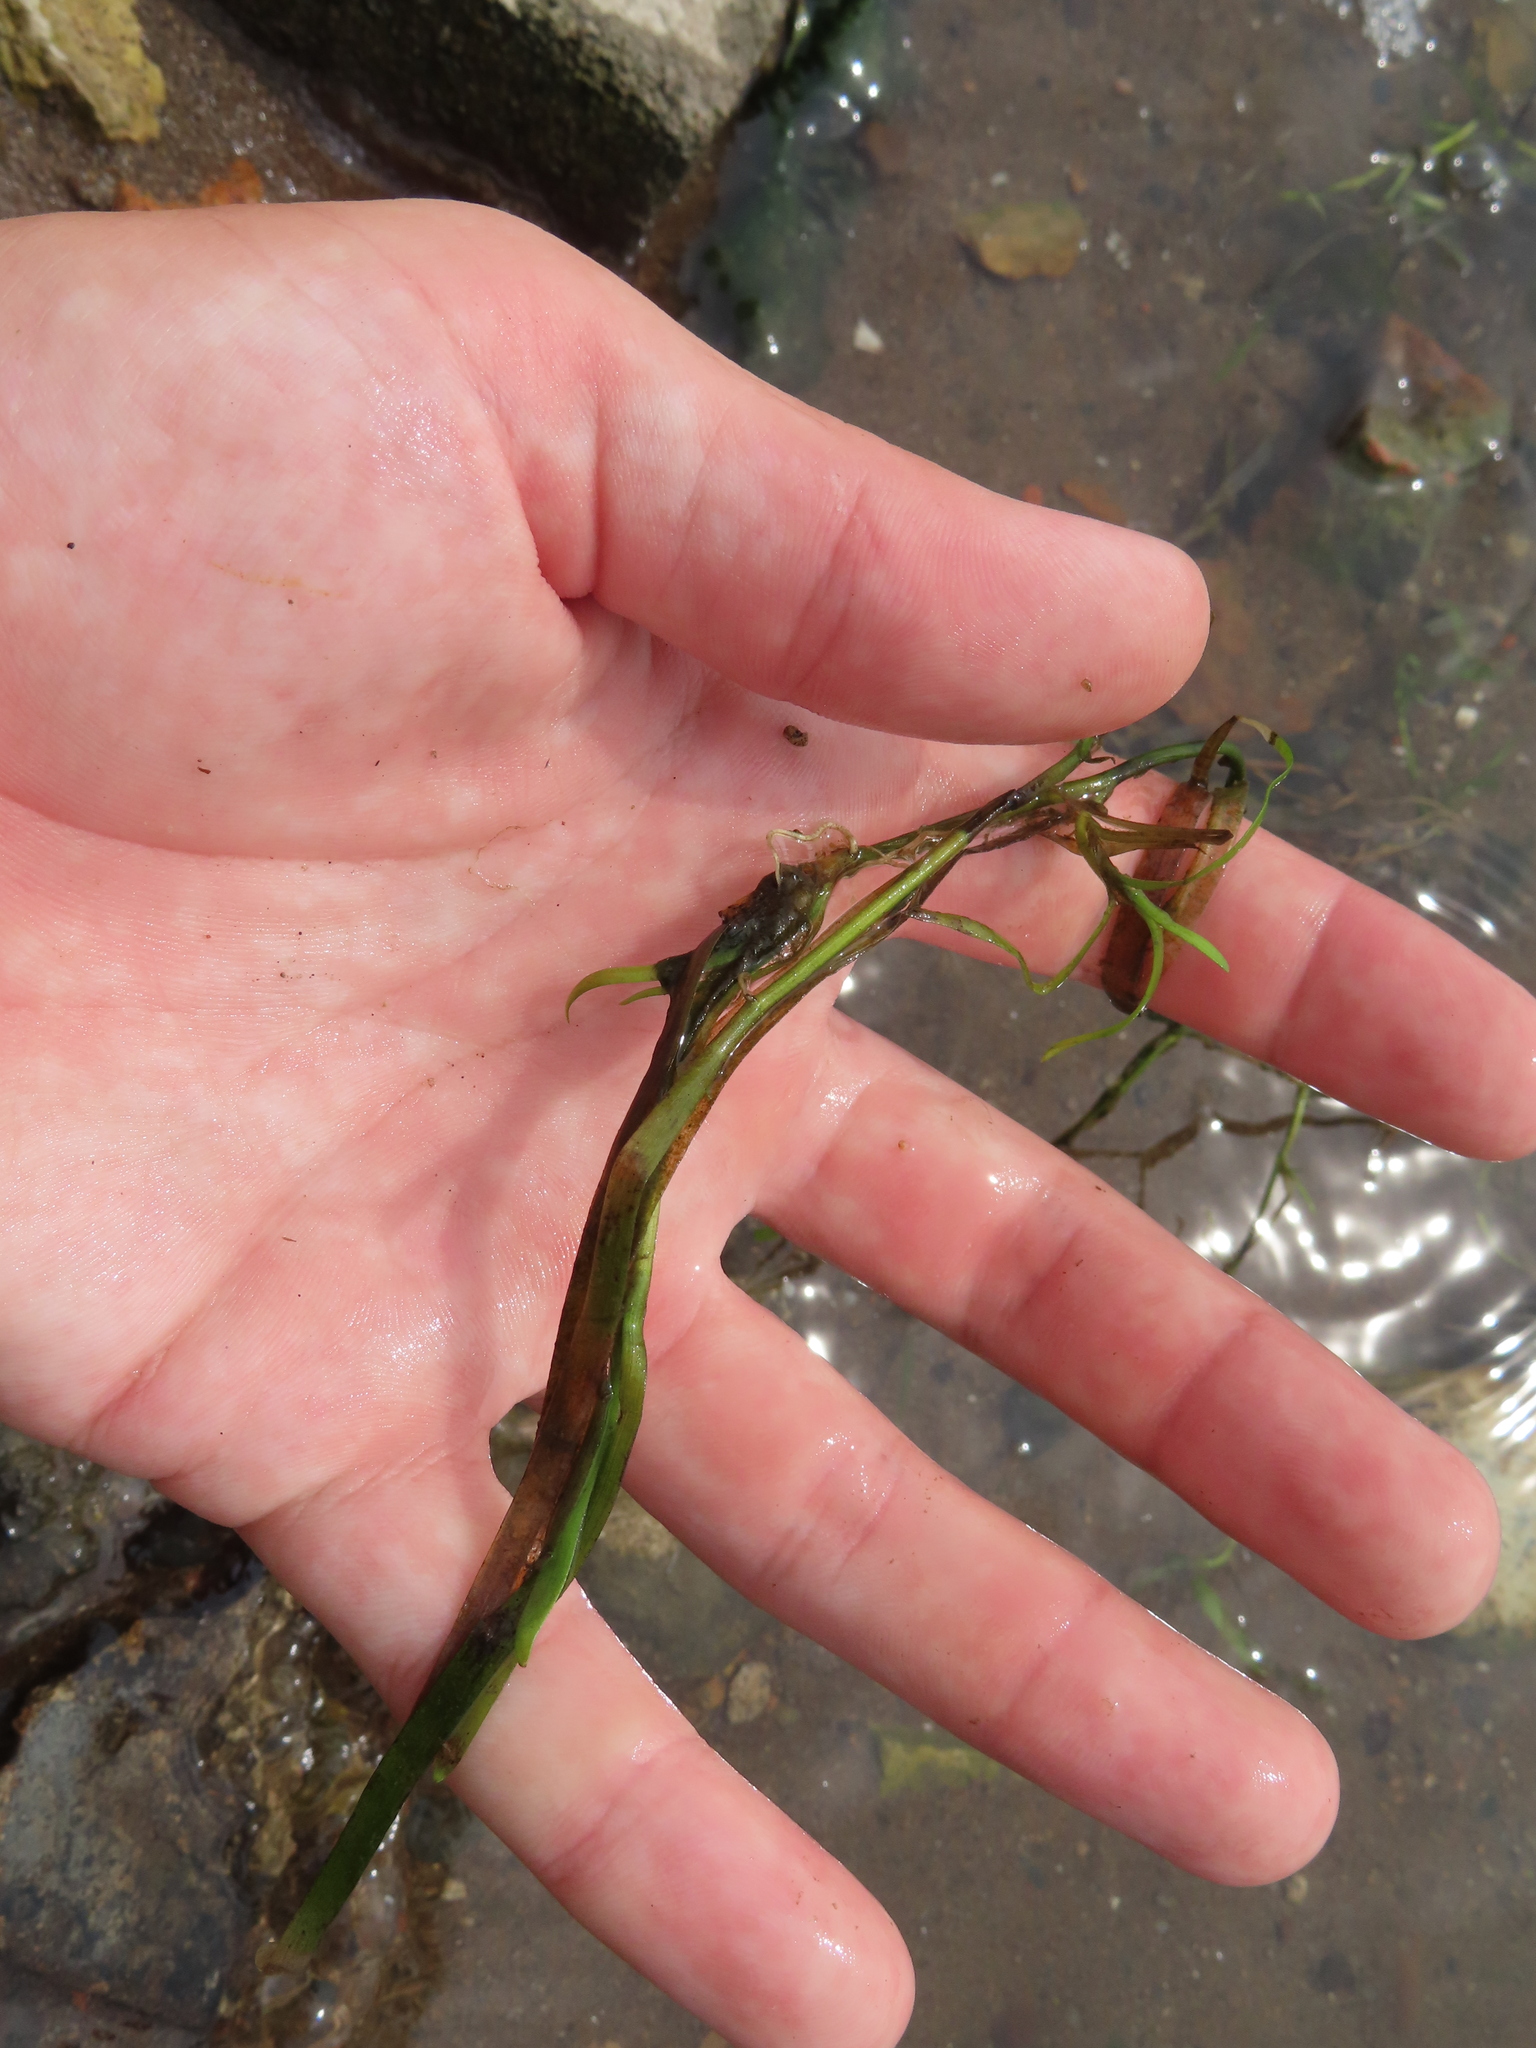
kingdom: Plantae
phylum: Tracheophyta
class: Liliopsida
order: Commelinales
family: Pontederiaceae
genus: Heteranthera
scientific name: Heteranthera dubia
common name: Grass-leaved mud plantain
